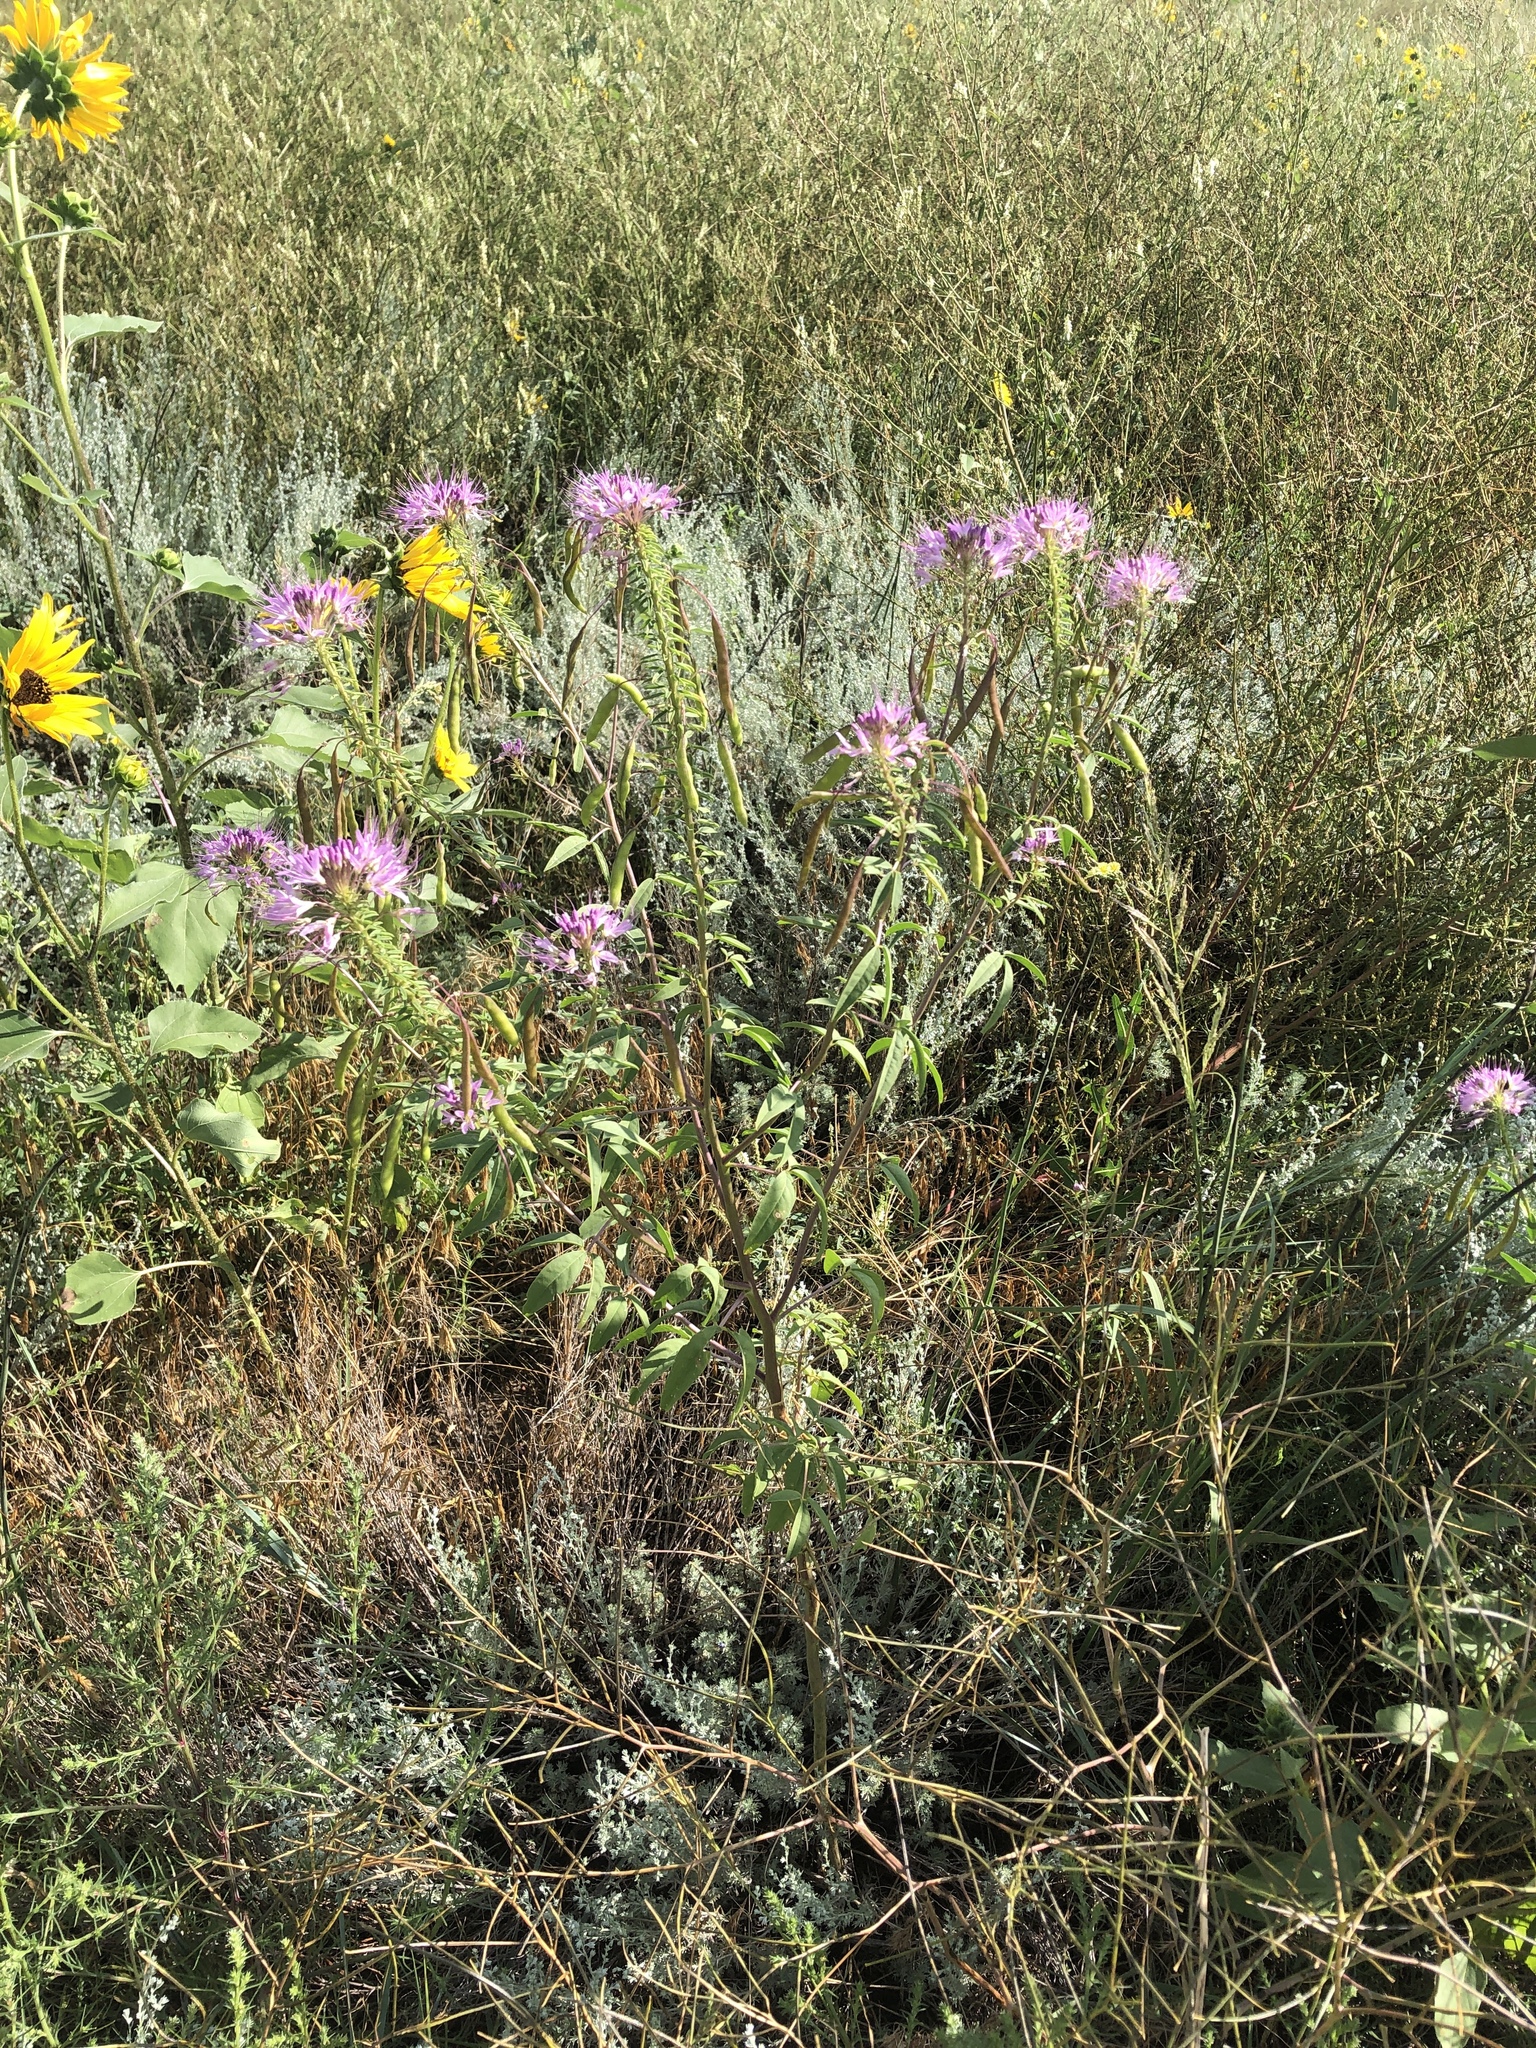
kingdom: Plantae
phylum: Tracheophyta
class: Magnoliopsida
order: Brassicales
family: Cleomaceae
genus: Cleomella
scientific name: Cleomella serrulata
